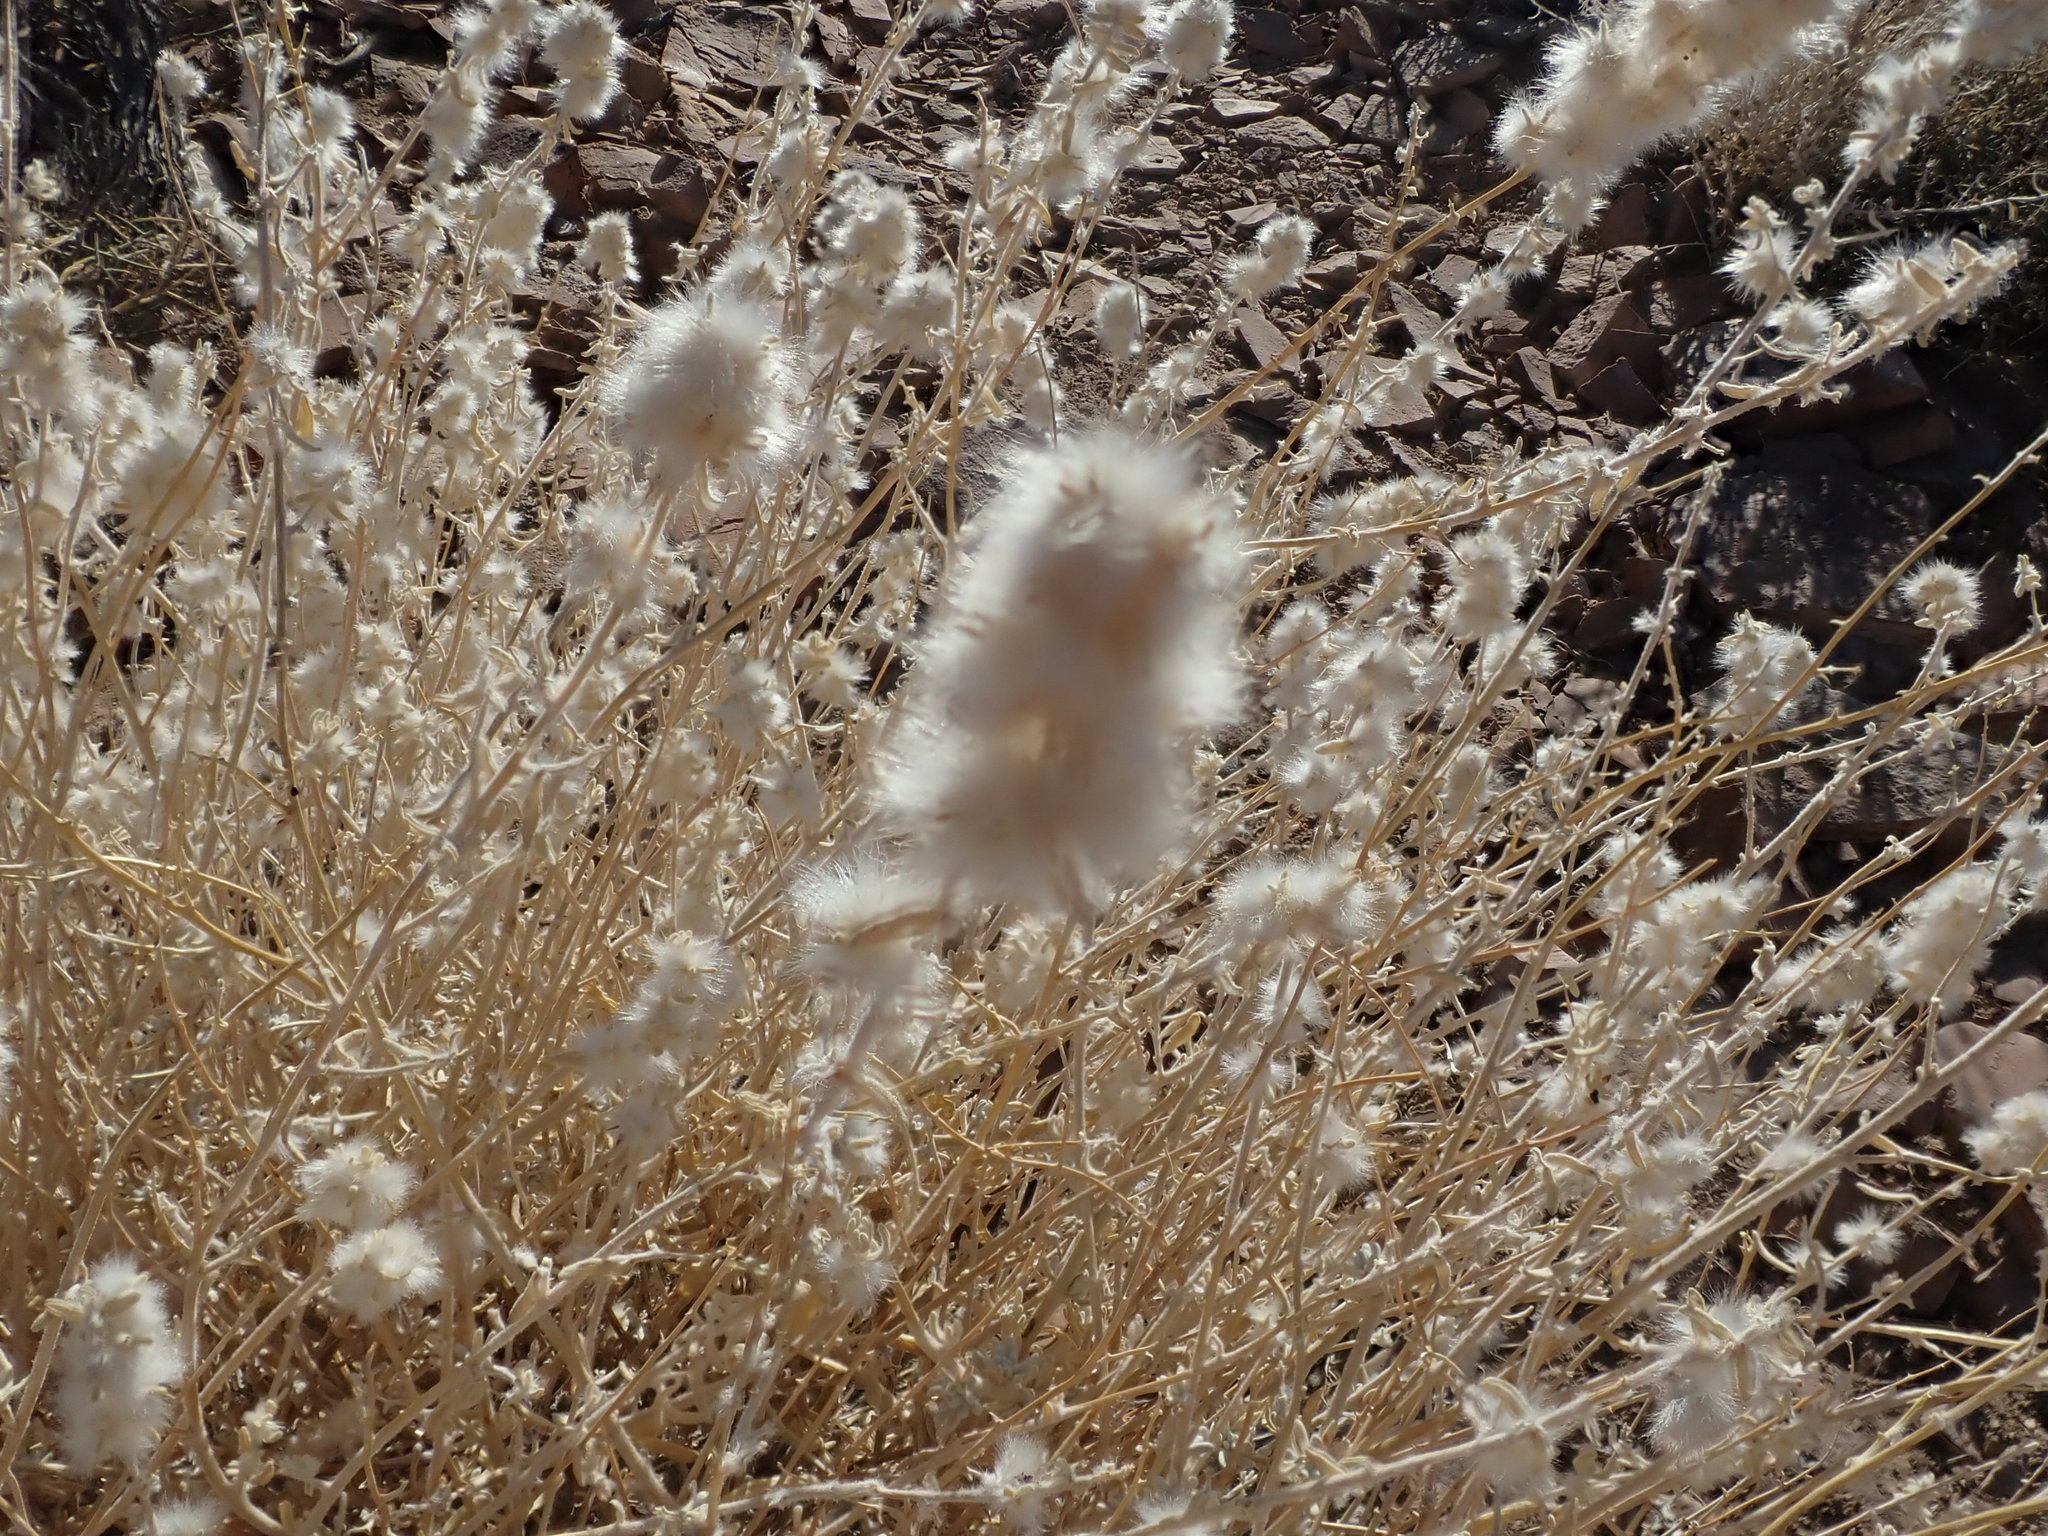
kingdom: Plantae
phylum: Tracheophyta
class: Magnoliopsida
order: Caryophyllales
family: Amaranthaceae
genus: Krascheninnikovia
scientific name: Krascheninnikovia lanata
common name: Winterfat
